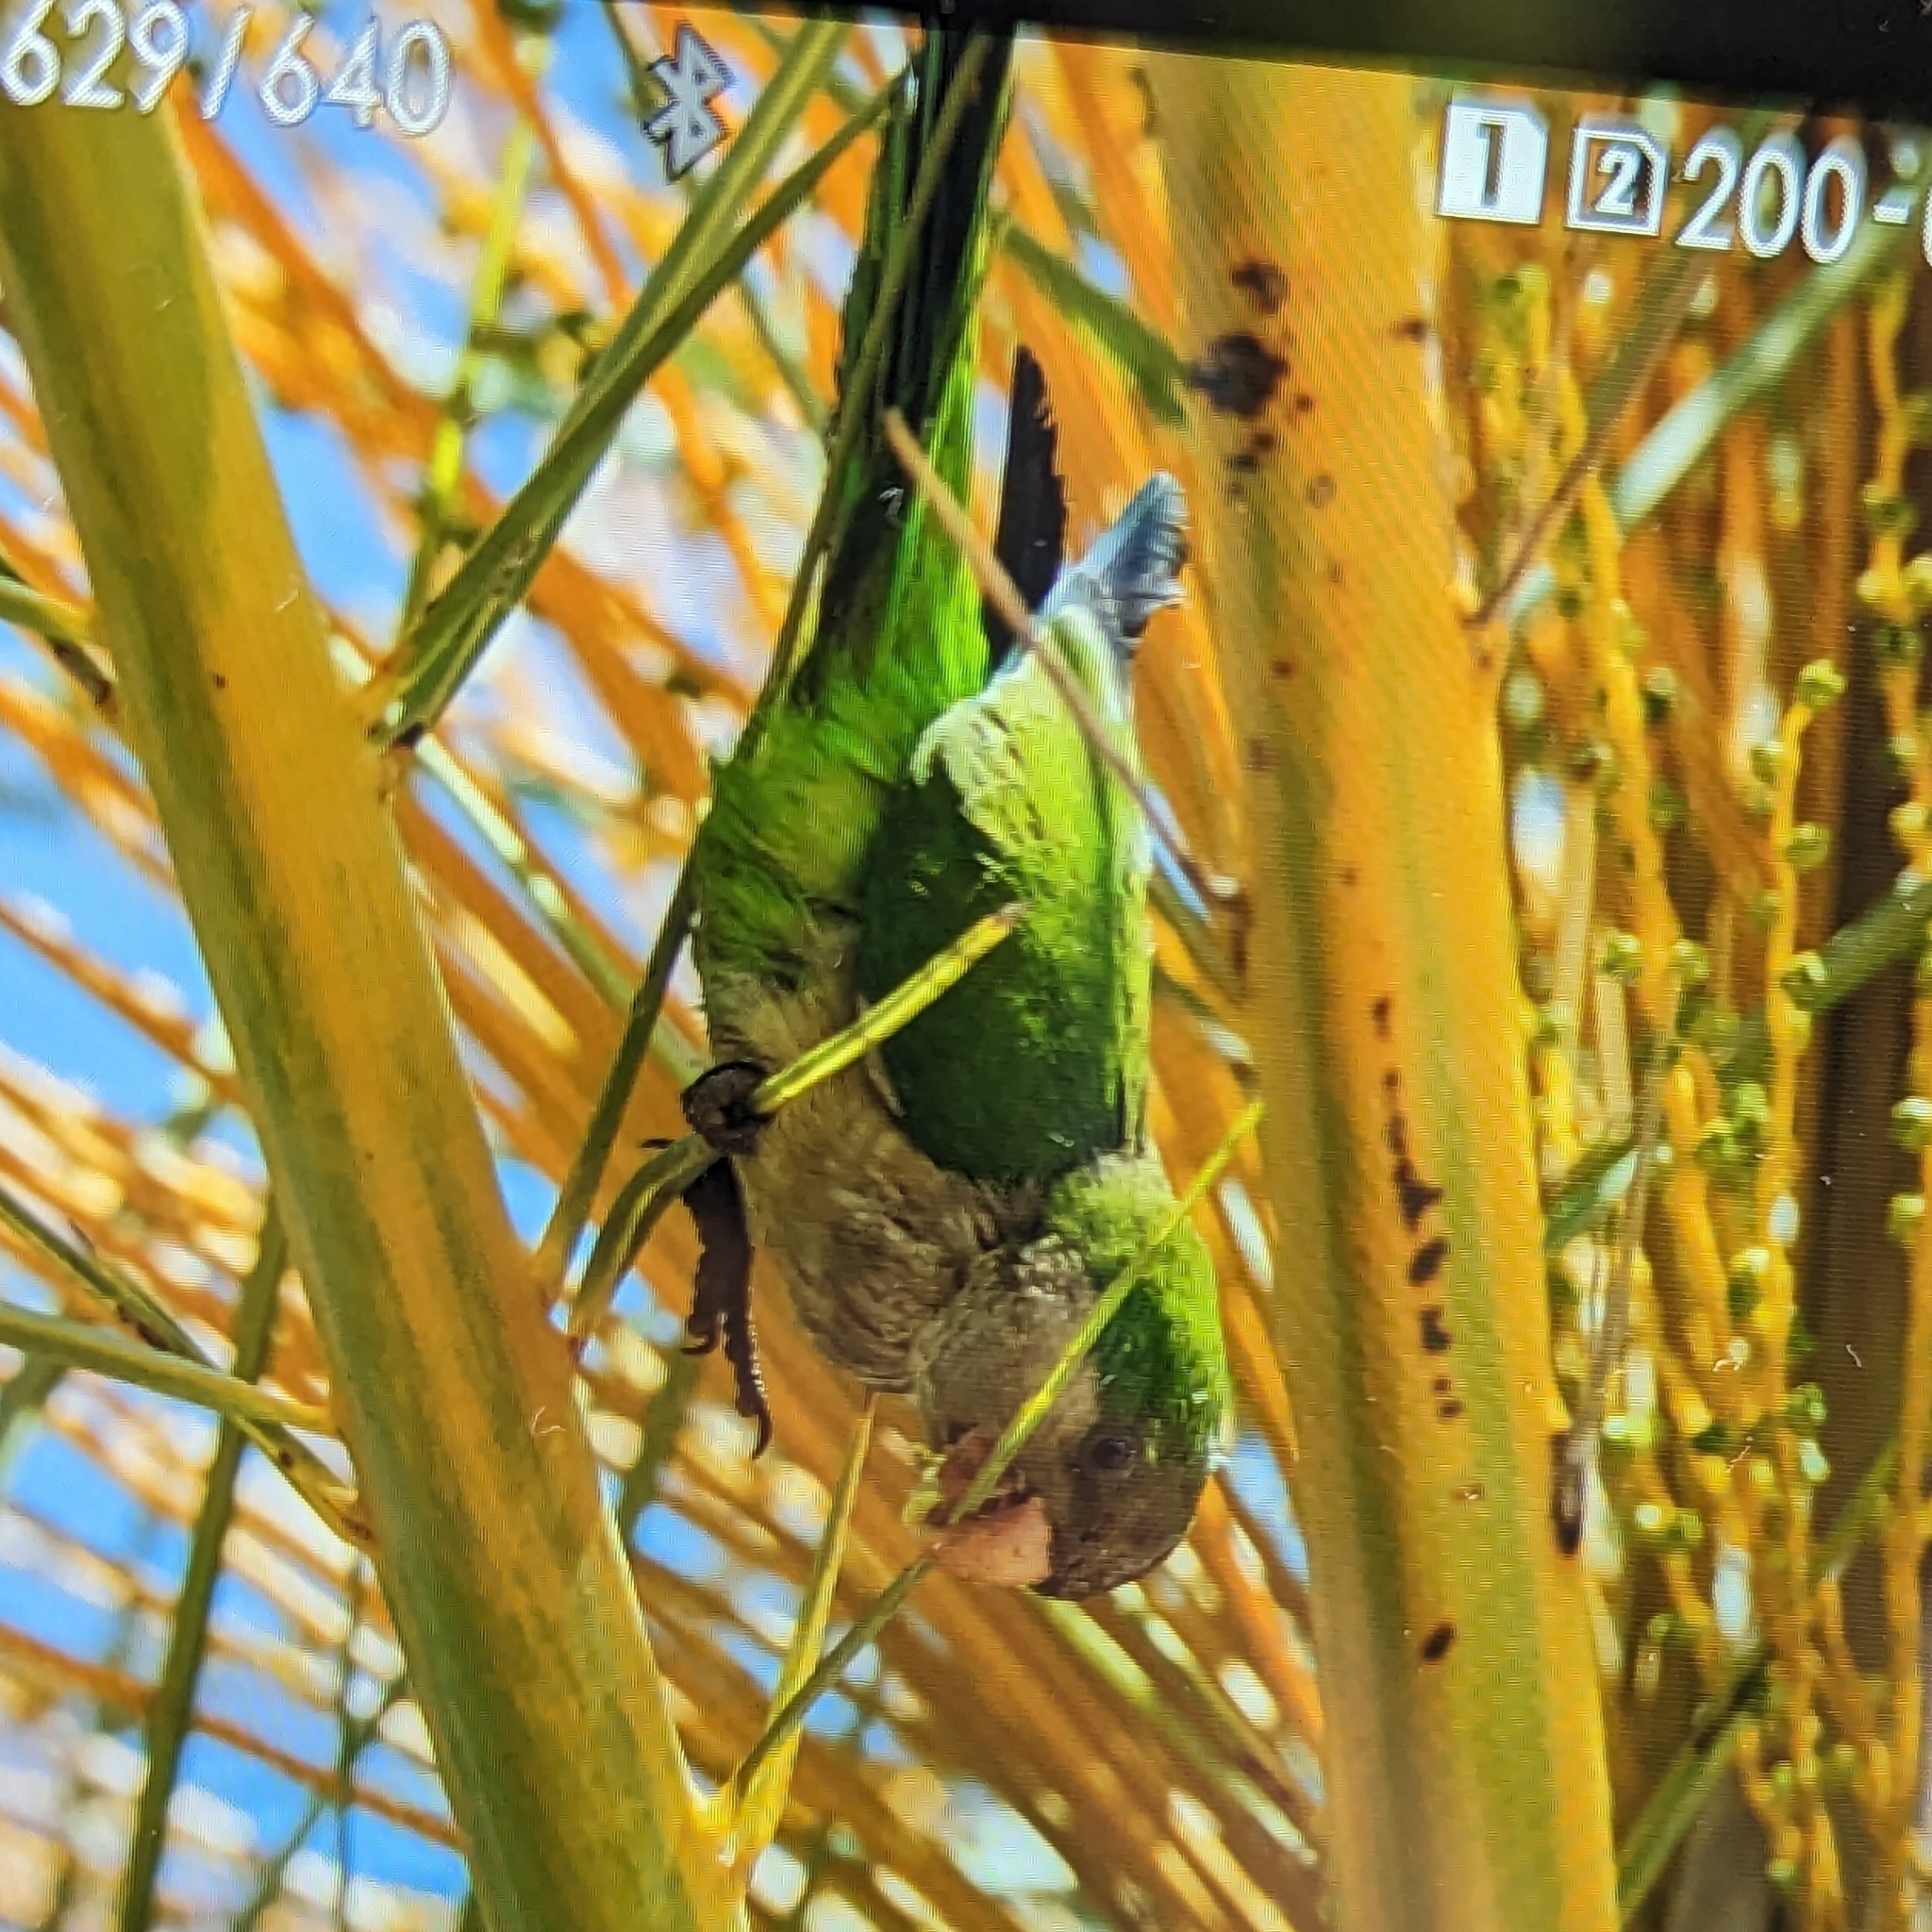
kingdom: Animalia
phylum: Chordata
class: Aves
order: Psittaciformes
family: Psittacidae
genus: Myiopsitta
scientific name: Myiopsitta monachus
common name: Monk parakeet
